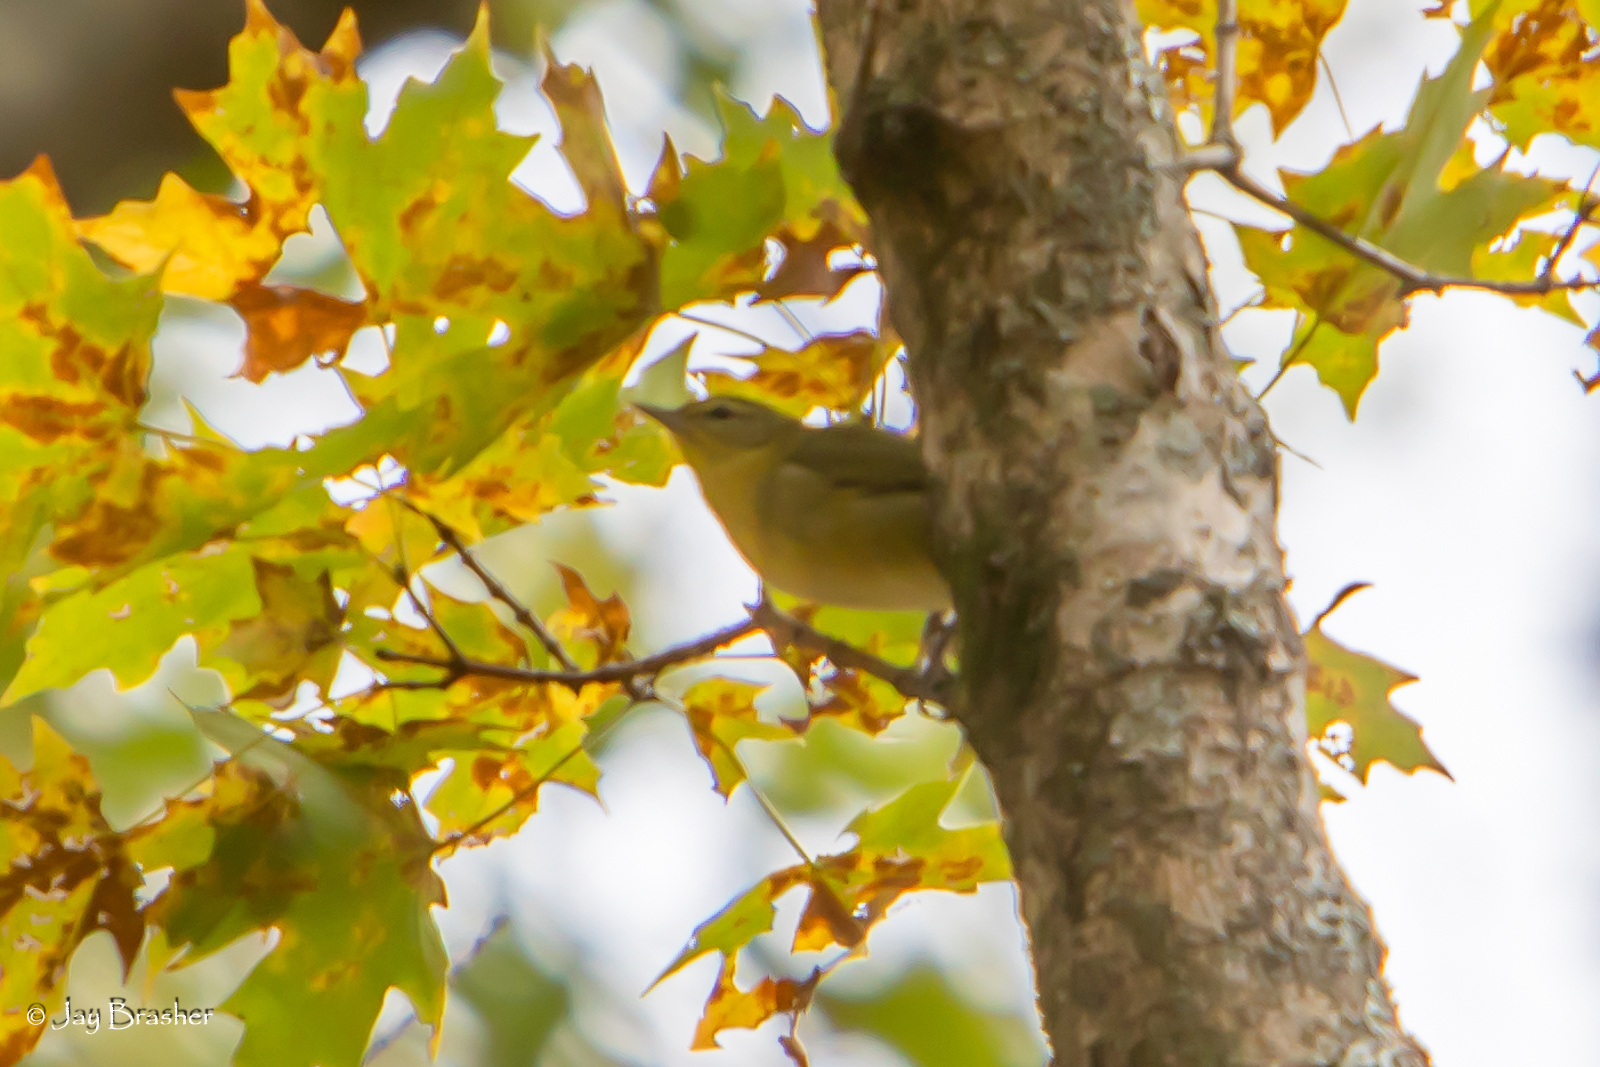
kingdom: Animalia
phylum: Chordata
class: Aves
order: Passeriformes
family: Parulidae
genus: Leiothlypis
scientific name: Leiothlypis peregrina
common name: Tennessee warbler
